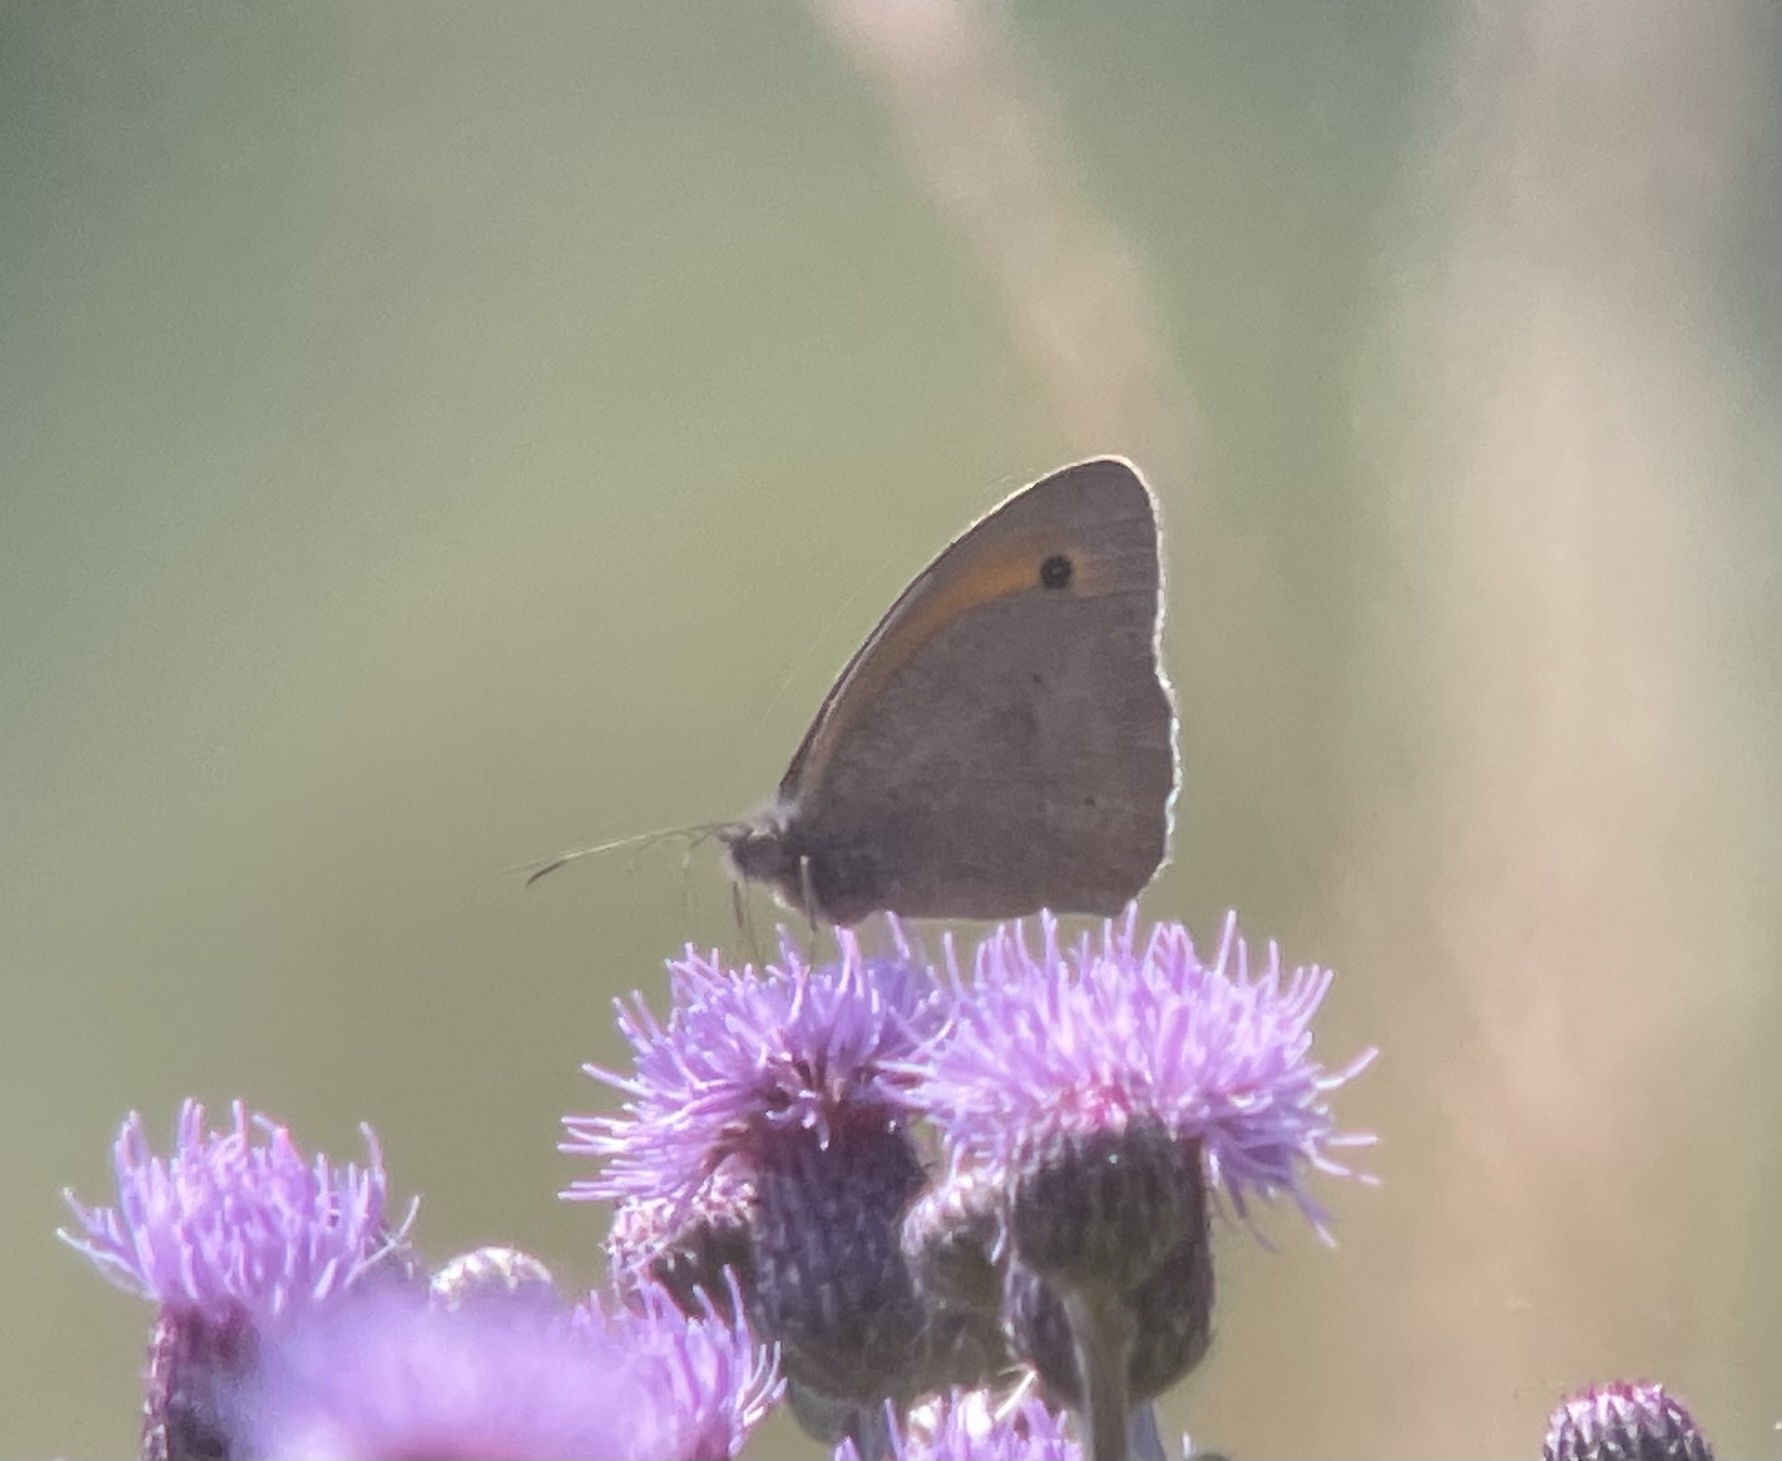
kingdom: Animalia
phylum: Arthropoda
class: Insecta
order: Lepidoptera
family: Nymphalidae
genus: Maniola
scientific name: Maniola jurtina
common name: Meadow brown
